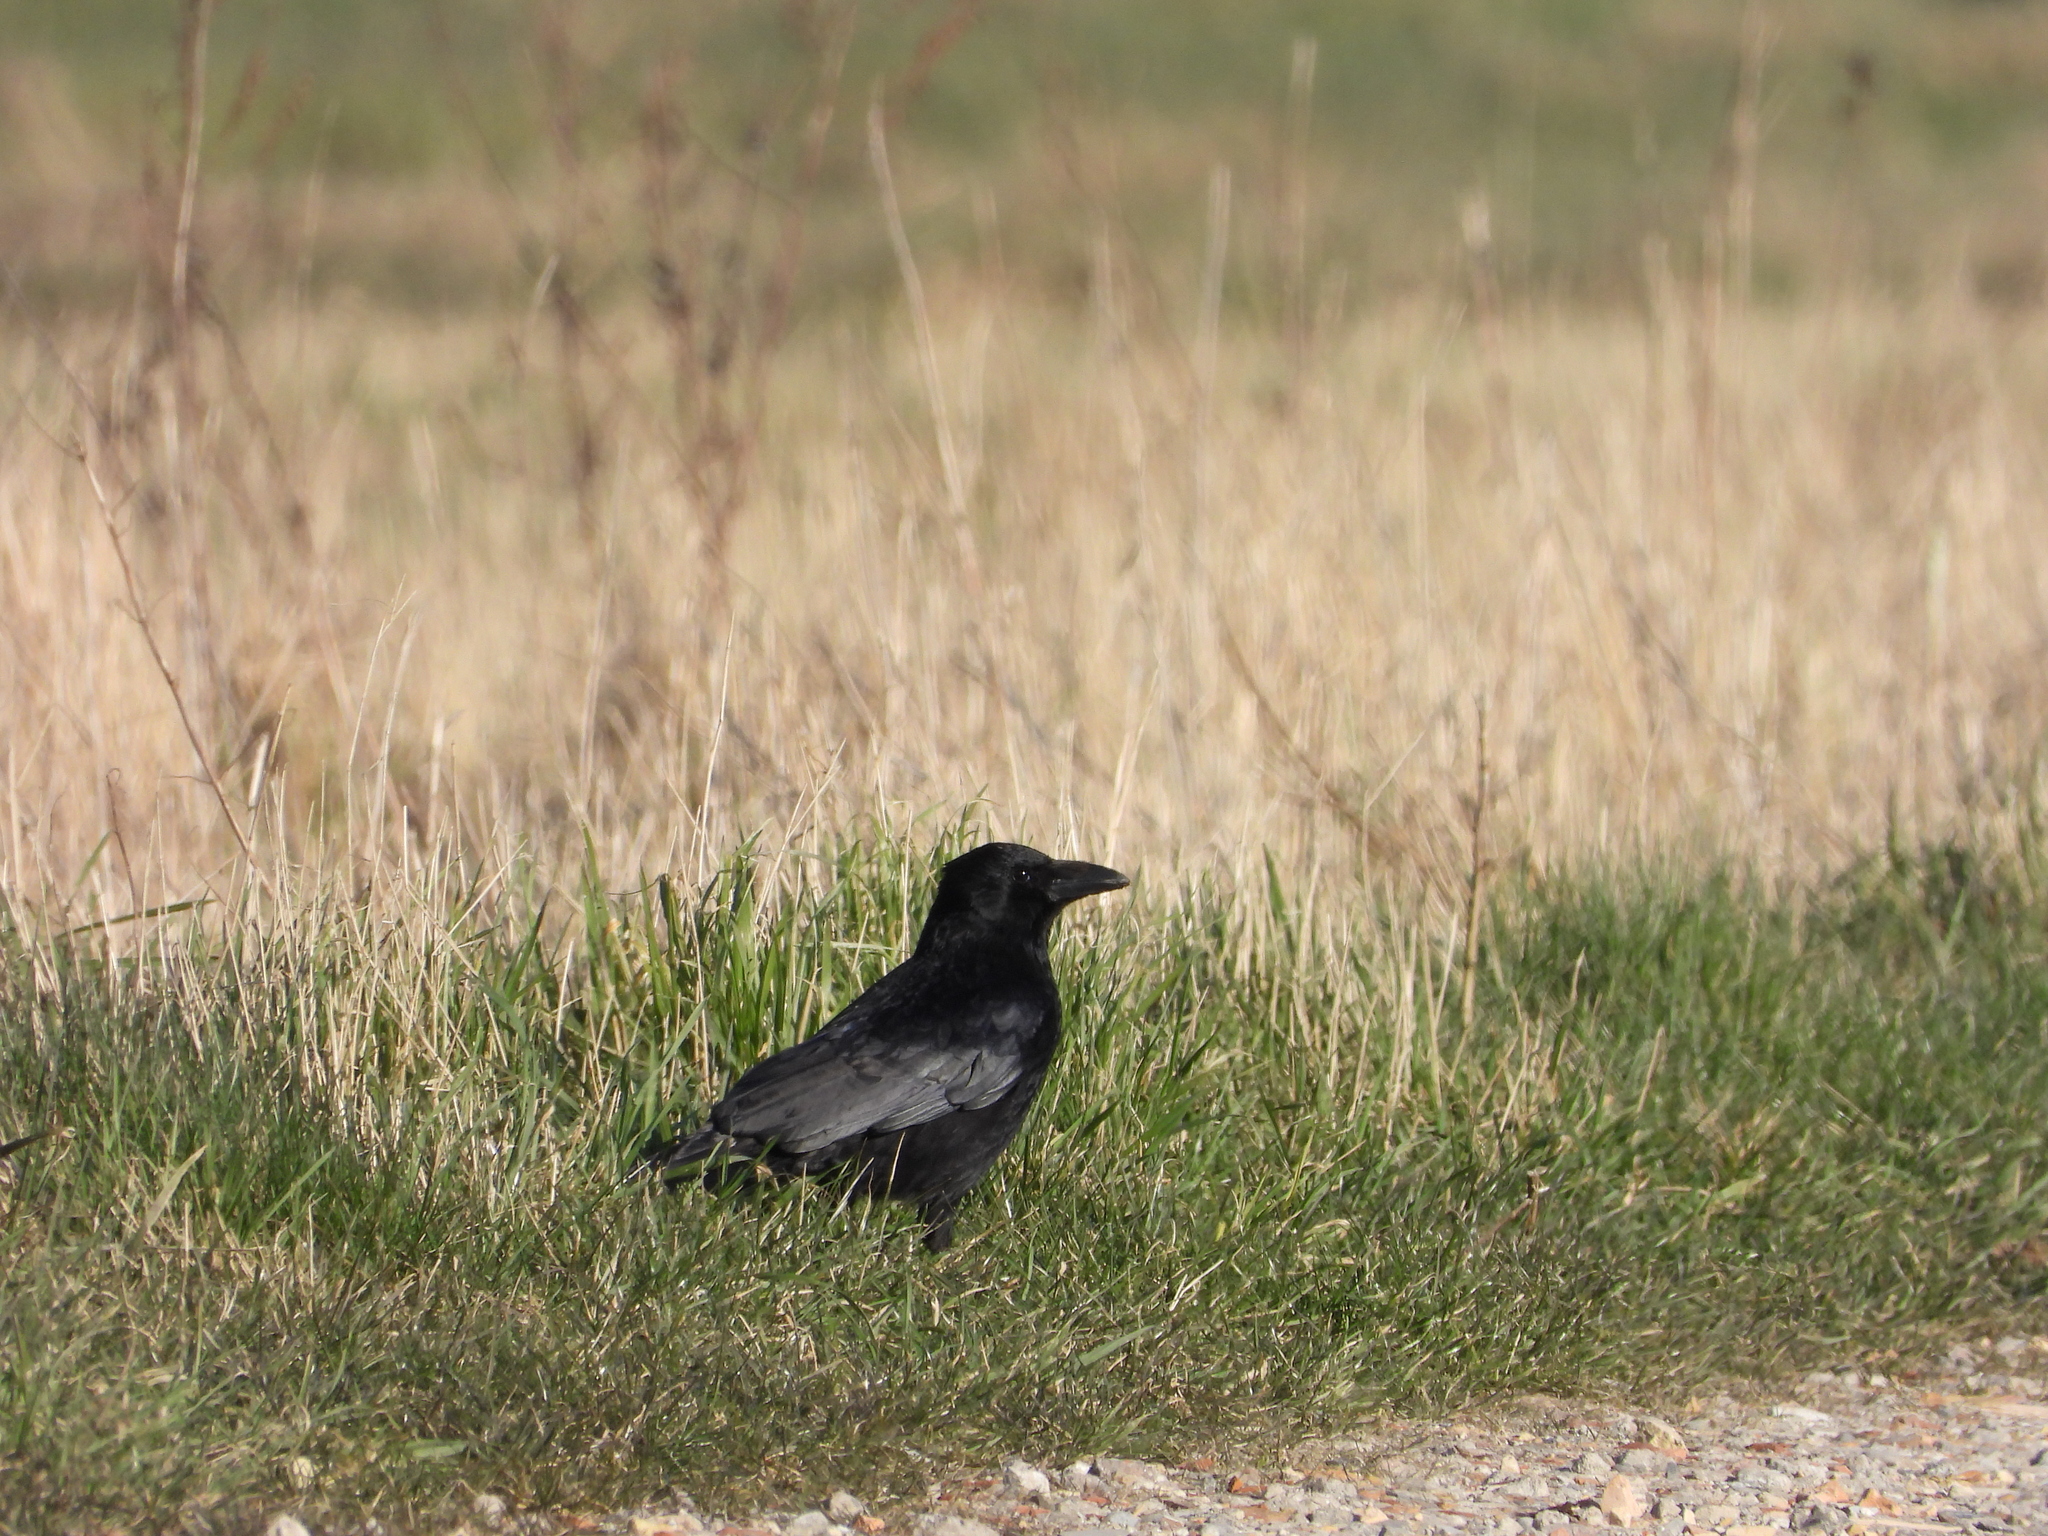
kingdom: Animalia
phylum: Chordata
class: Aves
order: Passeriformes
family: Corvidae
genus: Corvus
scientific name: Corvus corone
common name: Carrion crow
